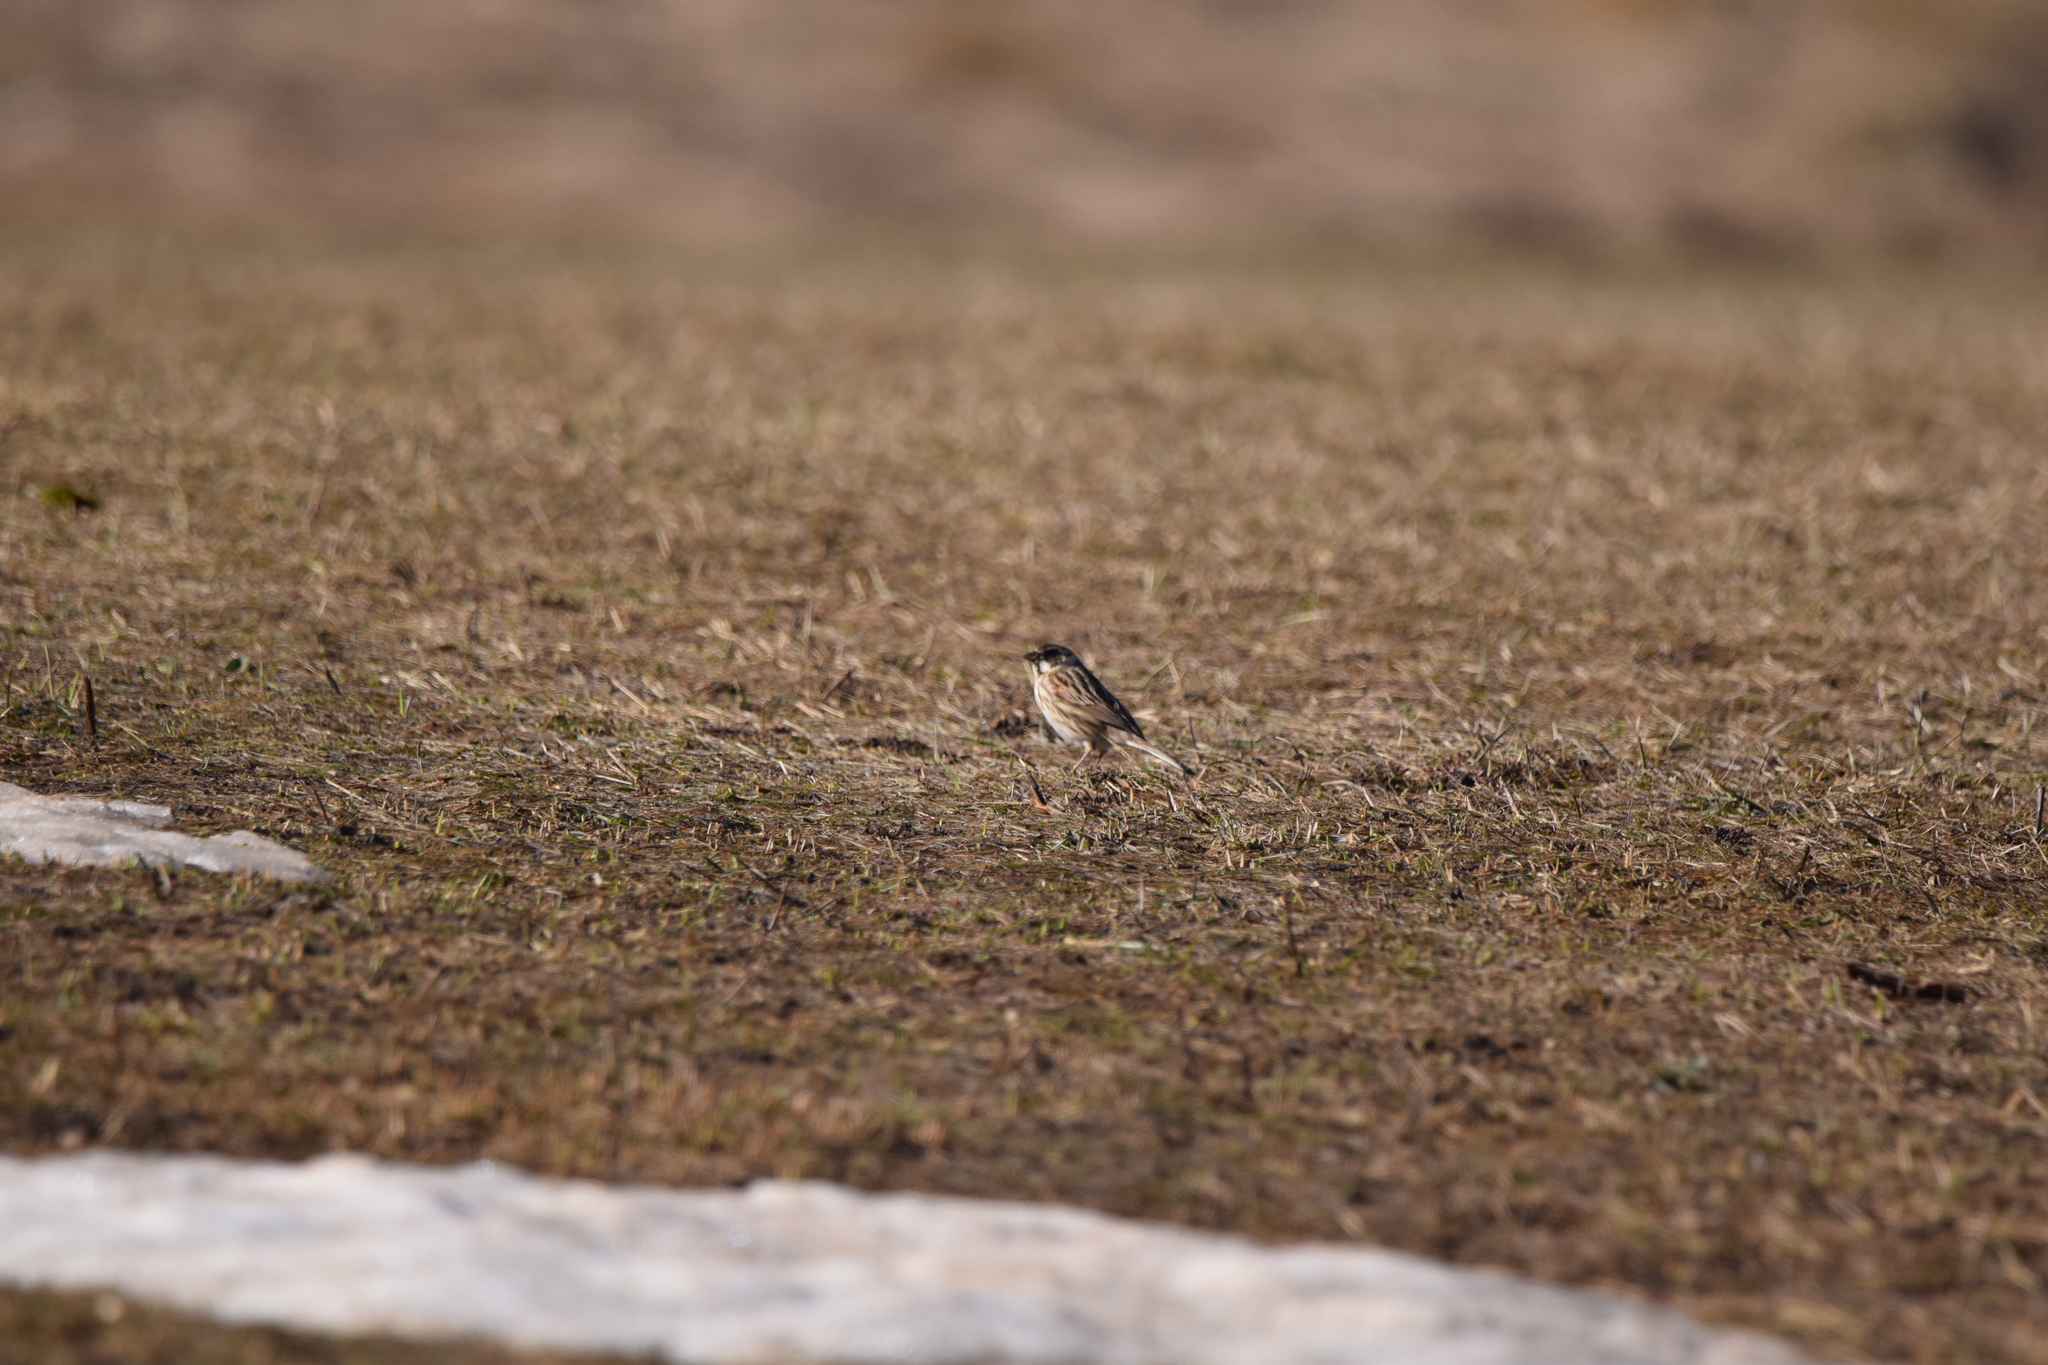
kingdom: Animalia
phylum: Chordata
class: Aves
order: Passeriformes
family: Emberizidae
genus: Emberiza
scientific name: Emberiza schoeniclus
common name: Reed bunting
